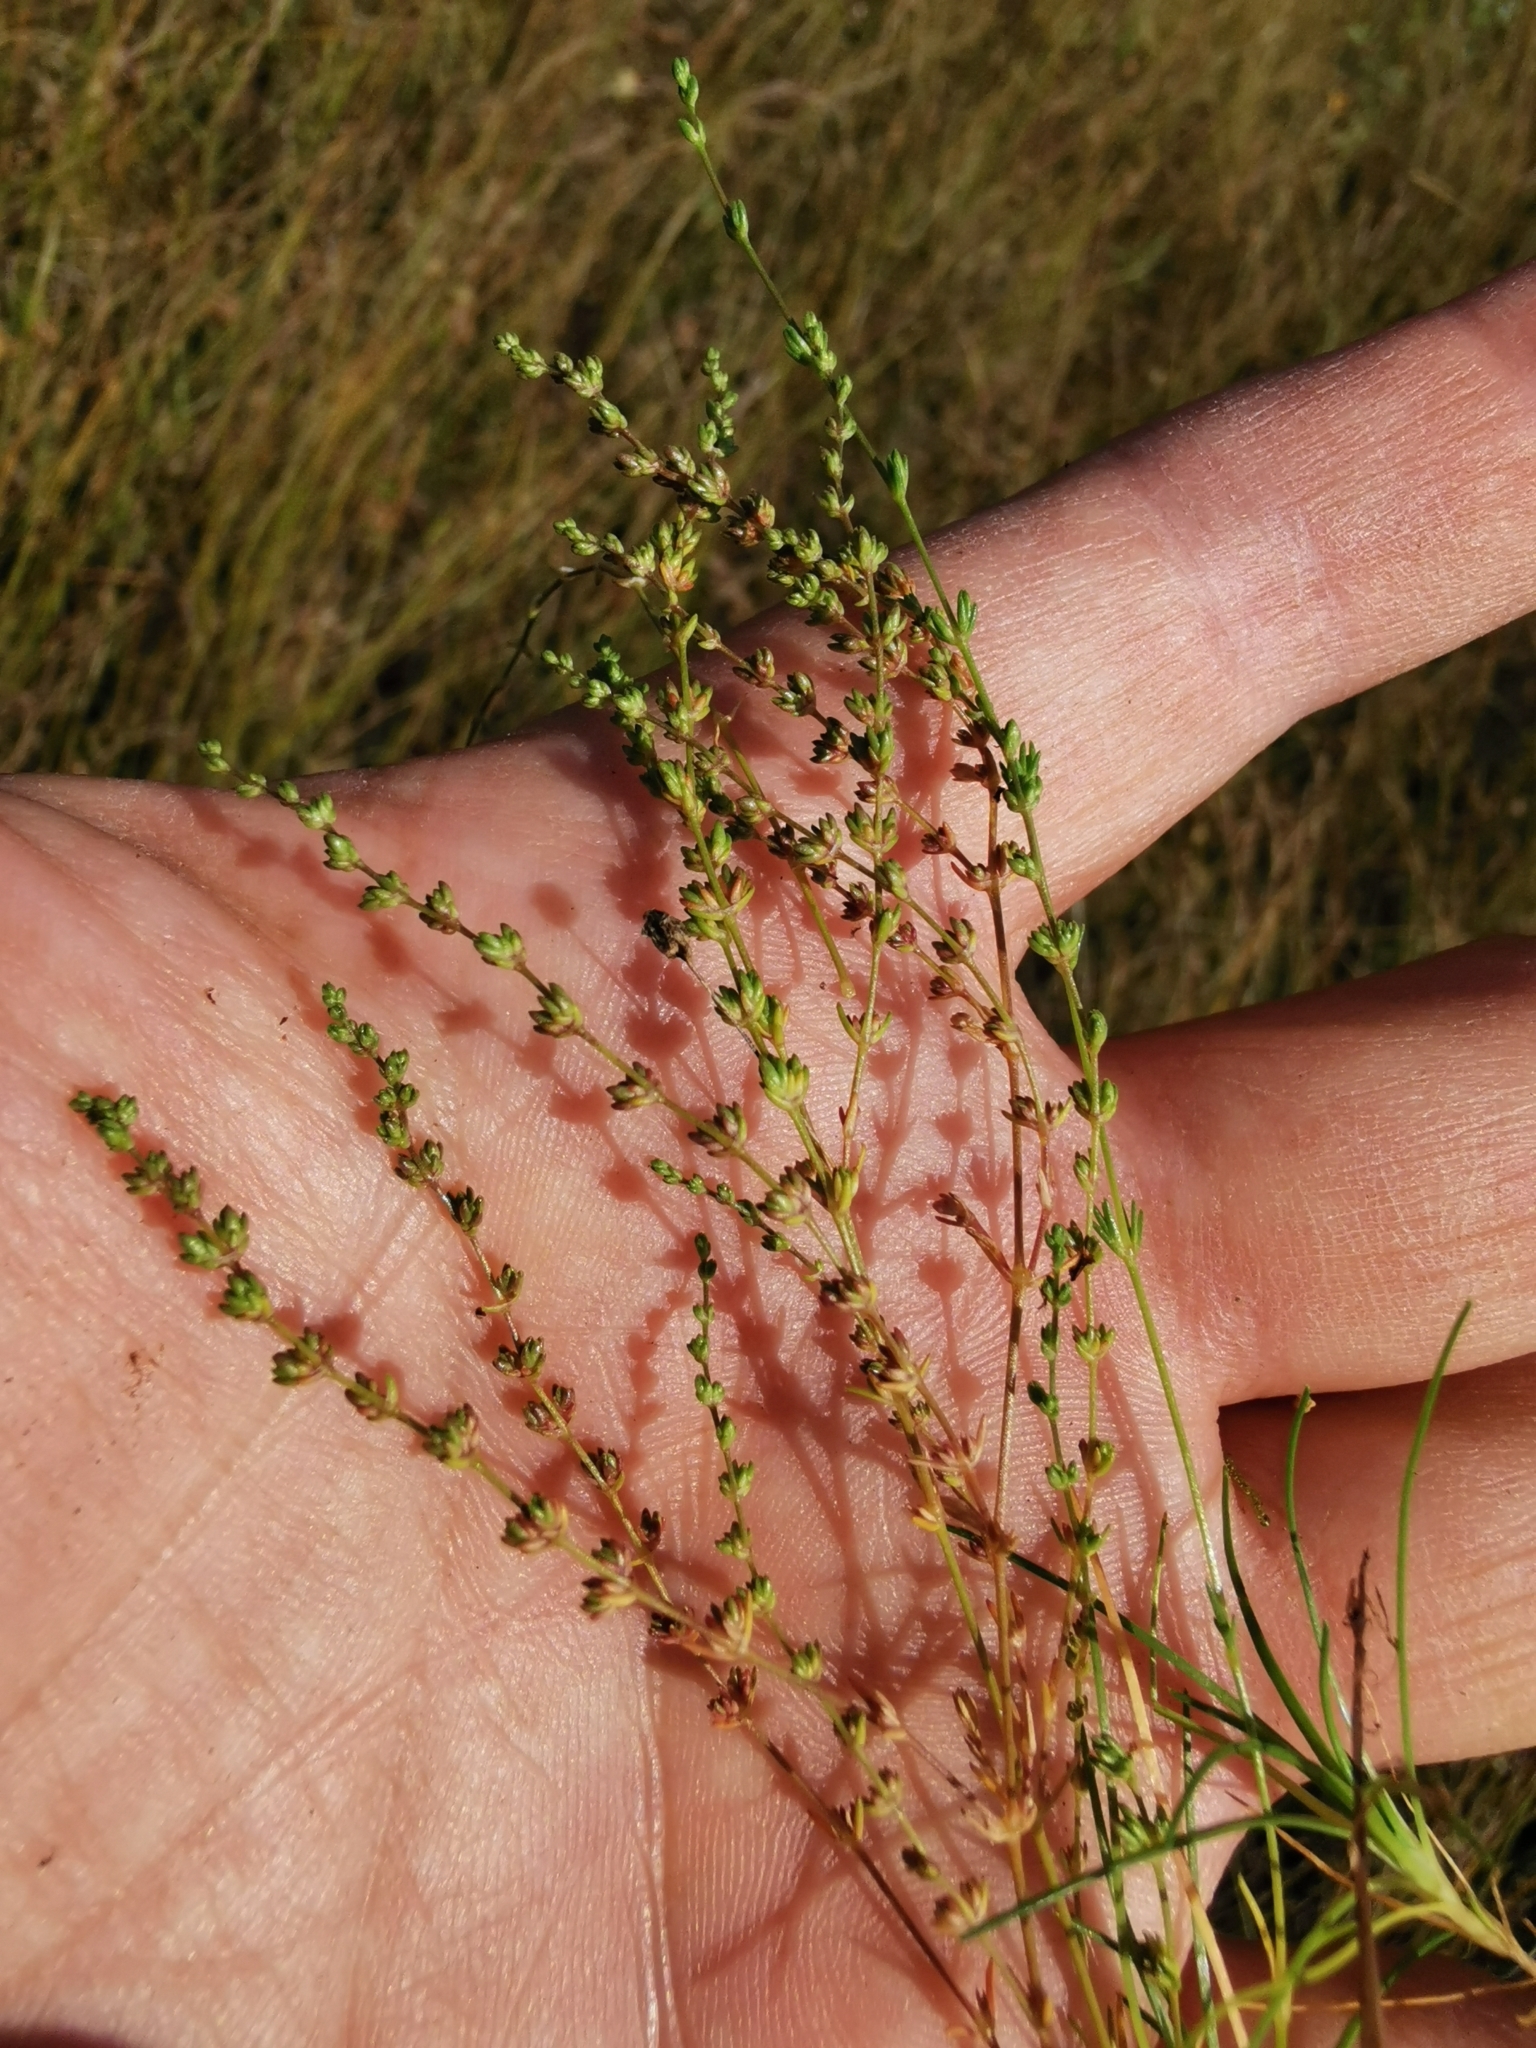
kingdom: Plantae
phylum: Tracheophyta
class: Magnoliopsida
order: Caryophyllales
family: Caryophyllaceae
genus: Sagina
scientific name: Sagina nodosa
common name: Knotted pearlwort
